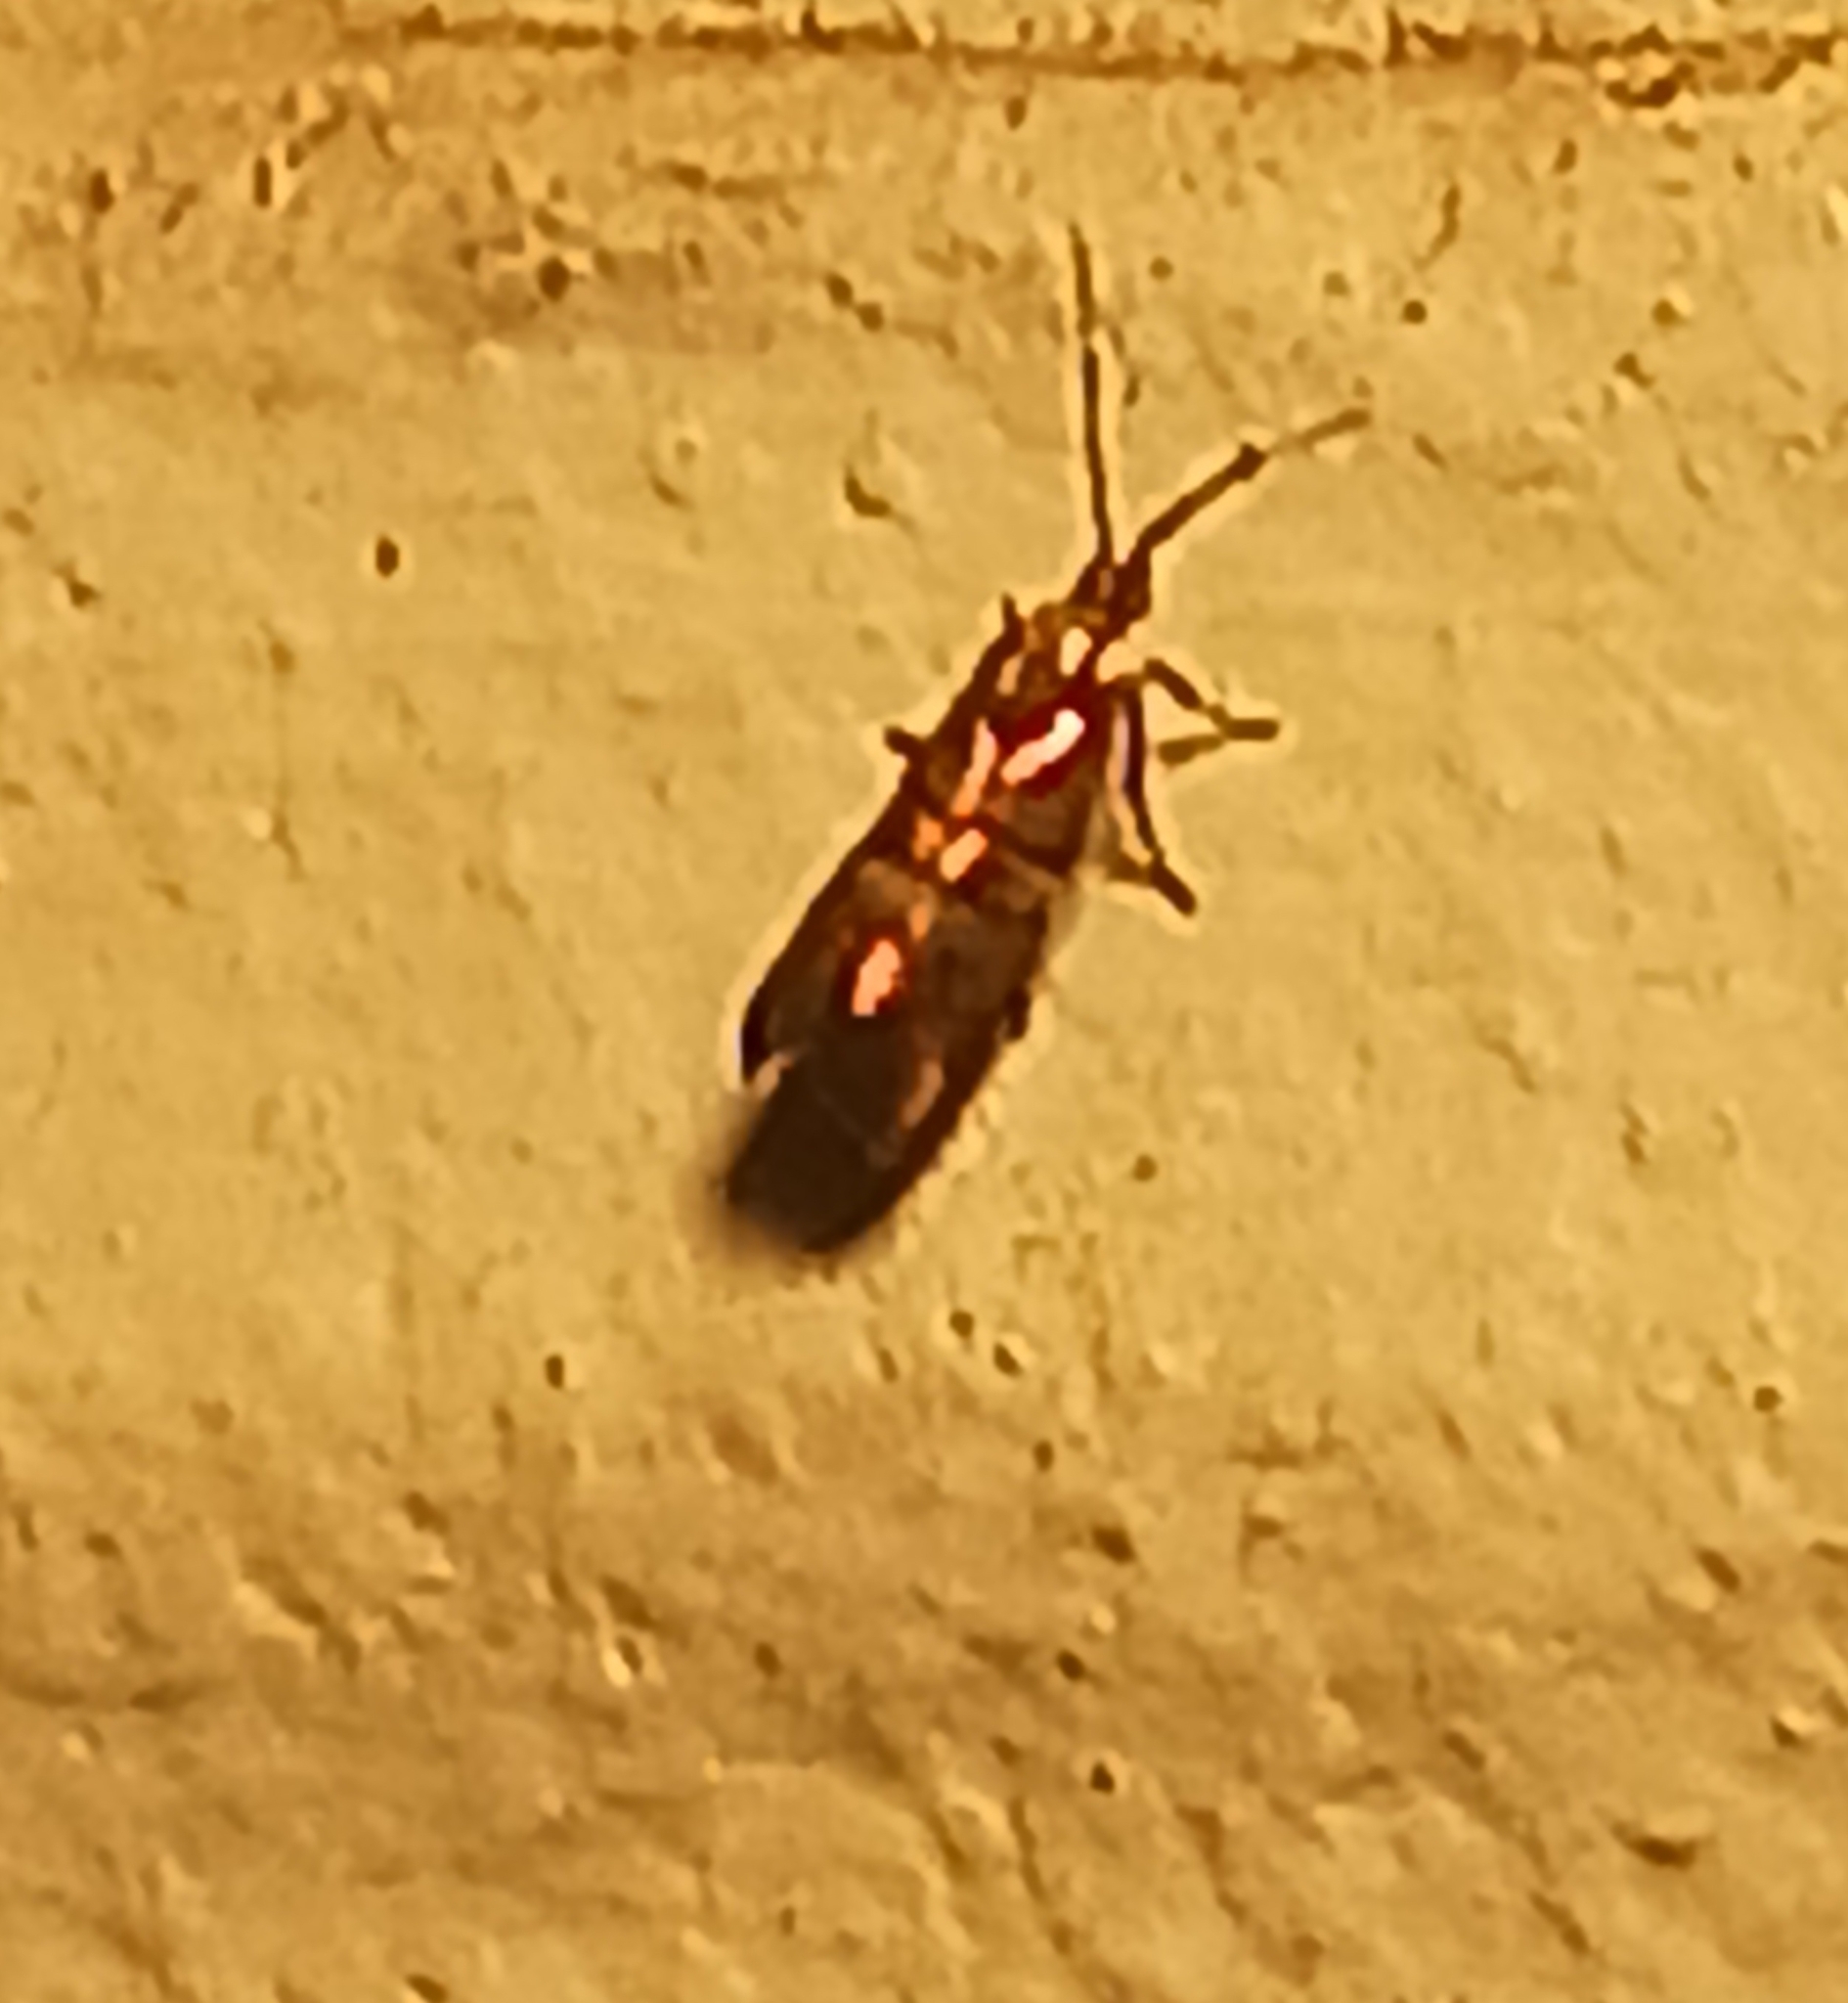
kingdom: Animalia
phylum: Arthropoda
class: Insecta
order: Lepidoptera
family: Choreutidae
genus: Tortyra
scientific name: Tortyra slossonia
